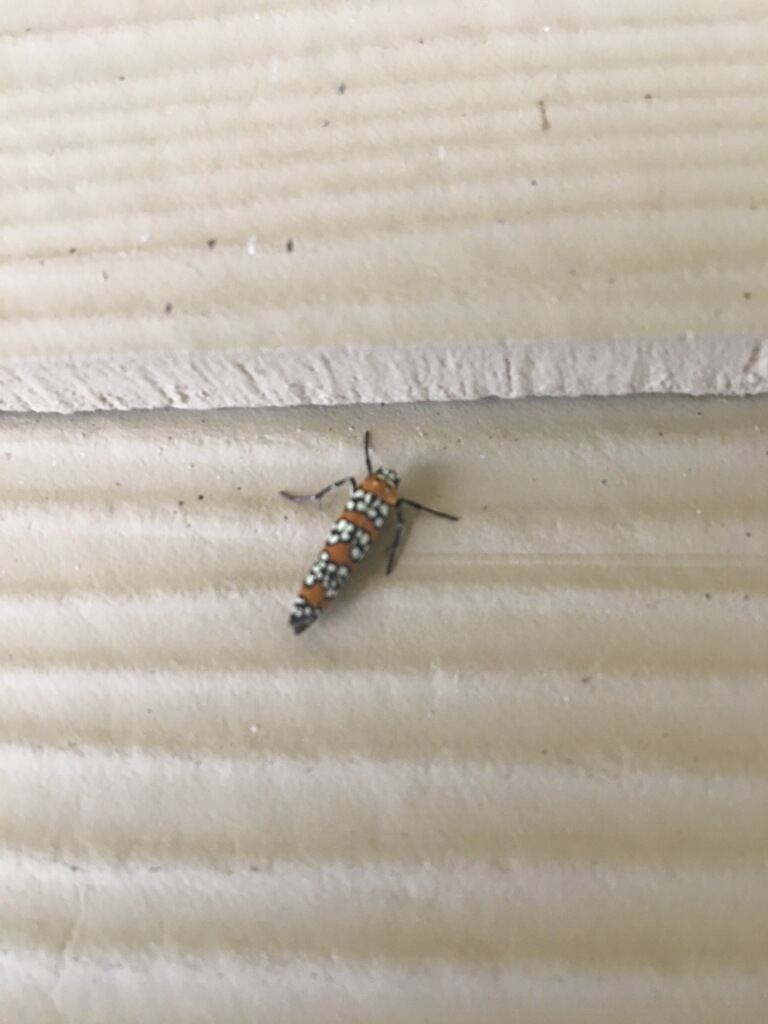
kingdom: Animalia
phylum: Arthropoda
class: Insecta
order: Lepidoptera
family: Attevidae
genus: Atteva
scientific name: Atteva punctella
